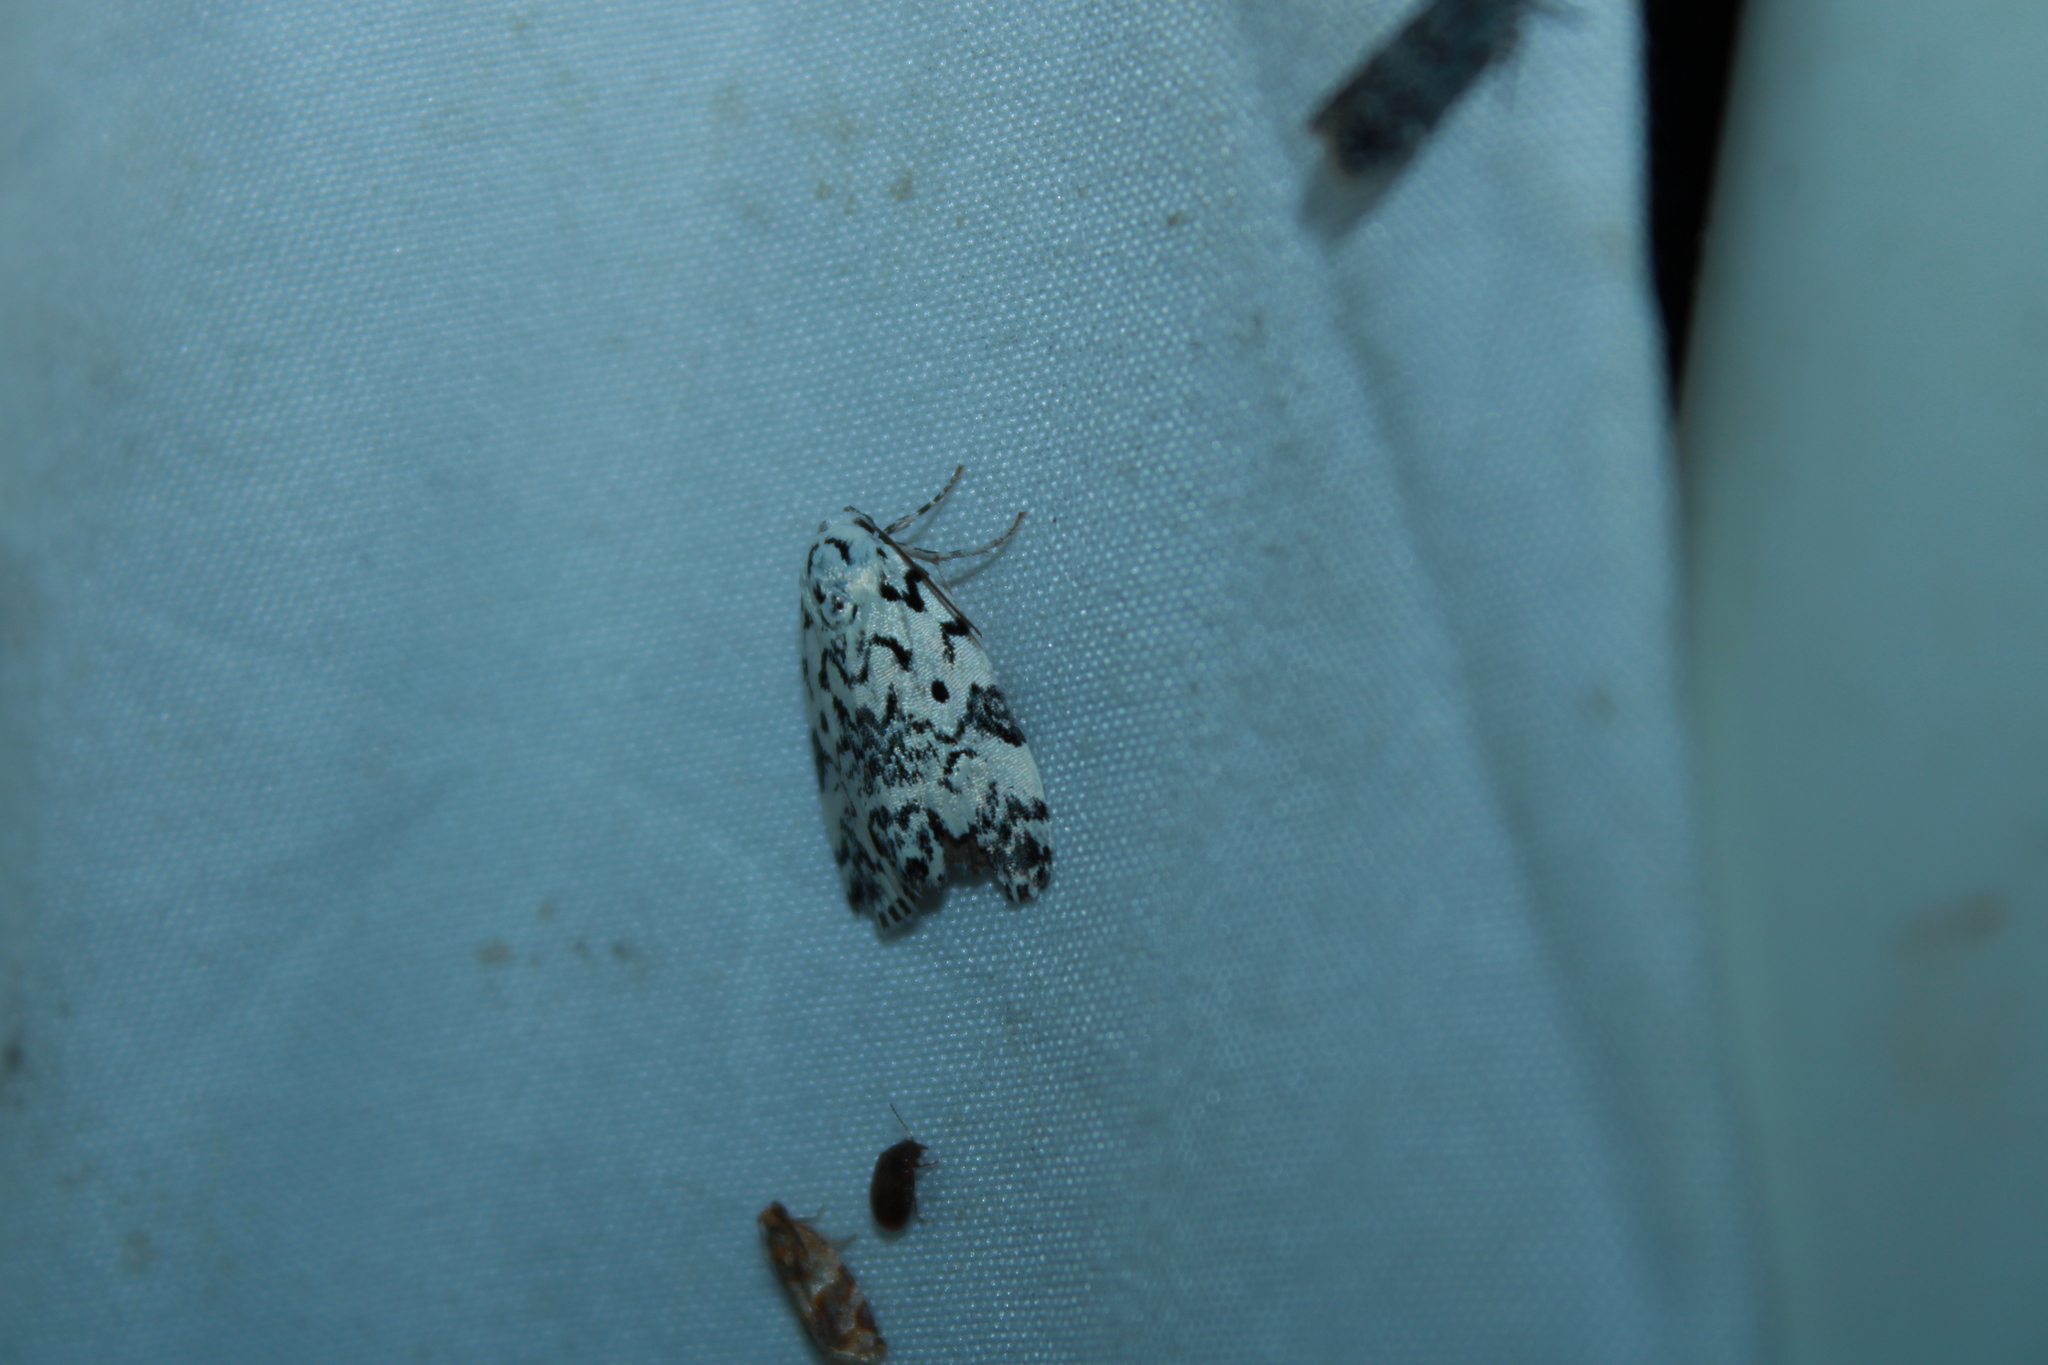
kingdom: Animalia
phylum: Arthropoda
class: Insecta
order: Lepidoptera
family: Noctuidae
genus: Polygrammate
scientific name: Polygrammate hebraeicum
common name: Hebrew moth
